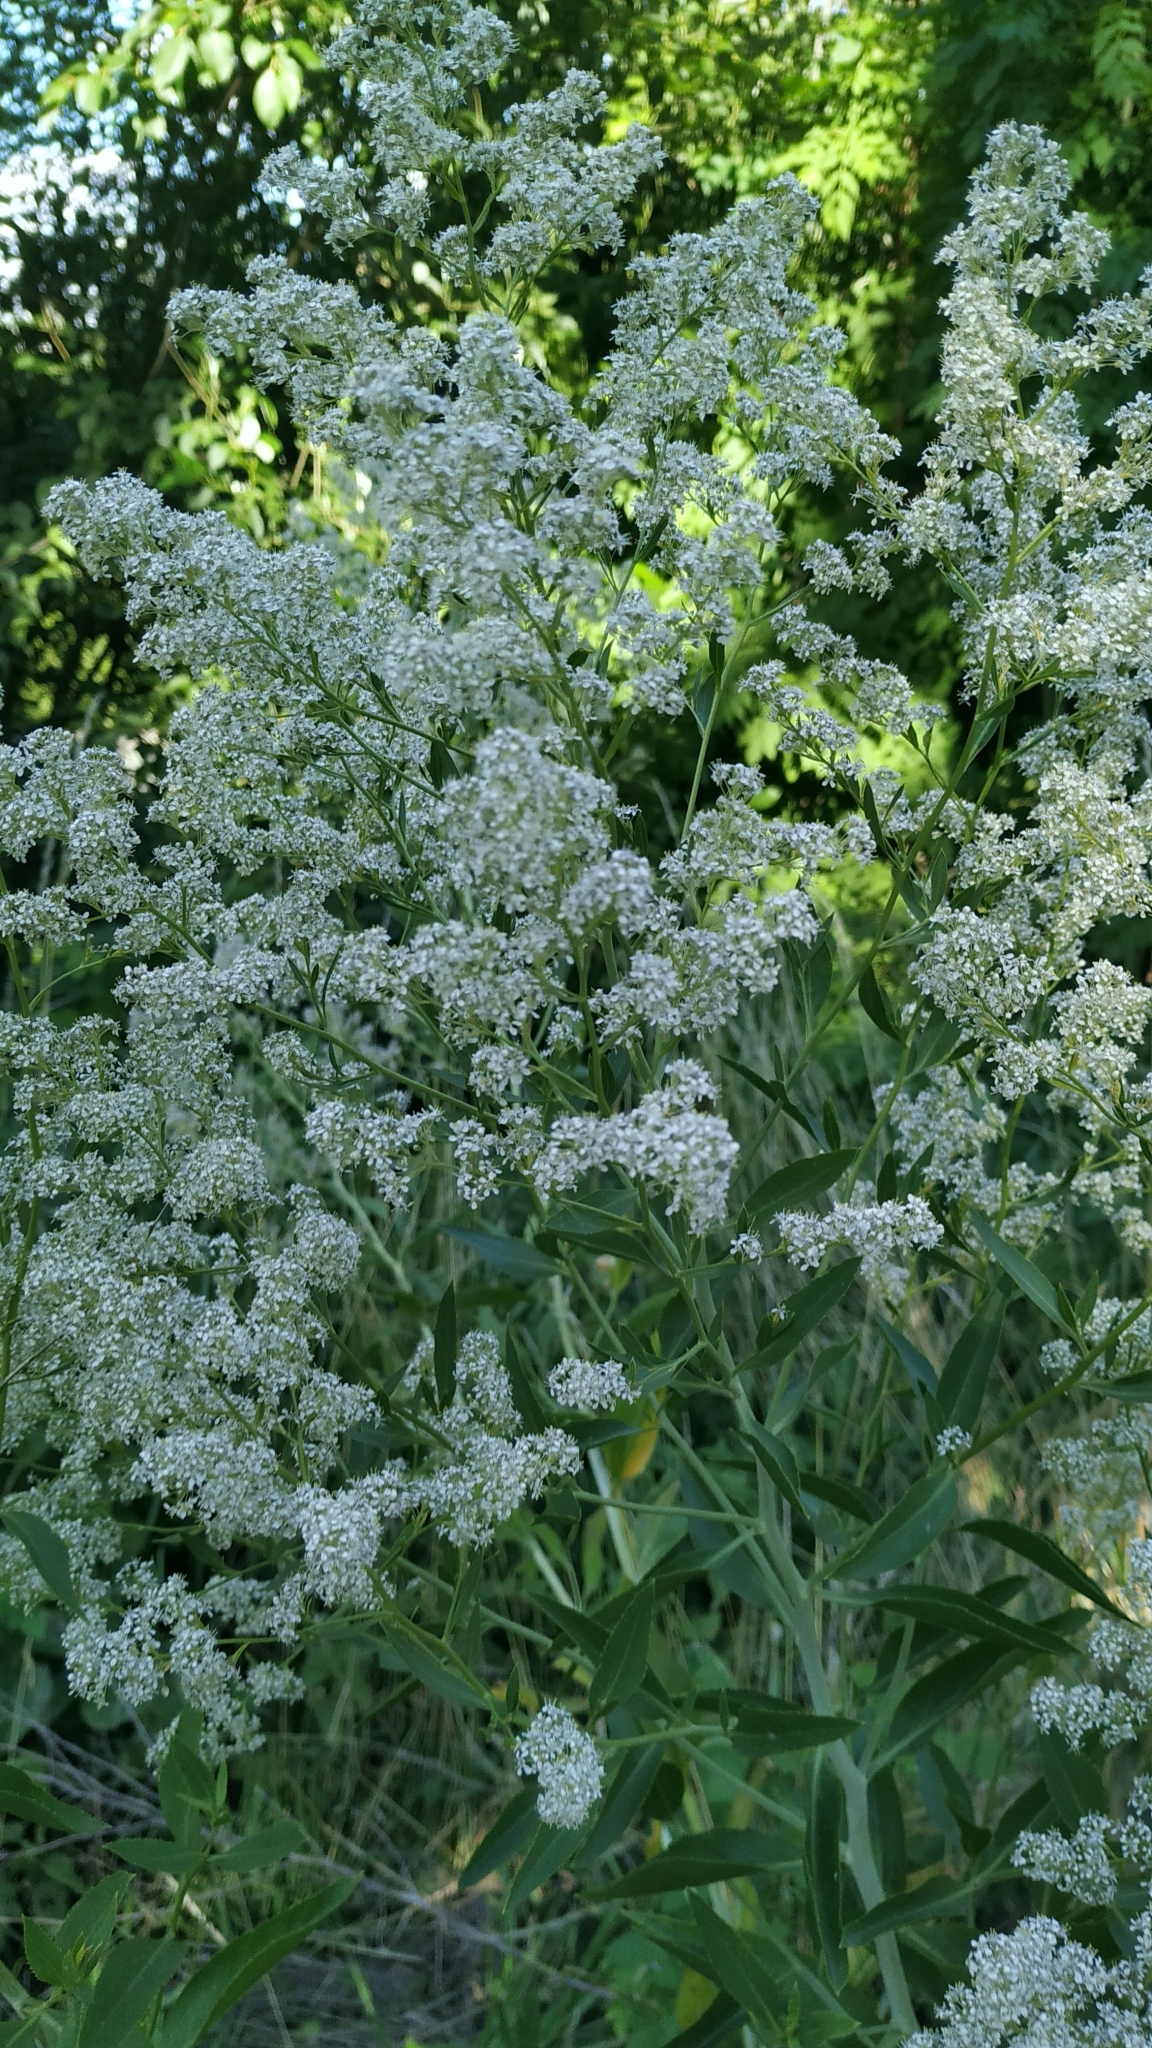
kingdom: Plantae
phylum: Tracheophyta
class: Magnoliopsida
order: Brassicales
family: Brassicaceae
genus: Lepidium
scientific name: Lepidium latifolium
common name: Dittander
